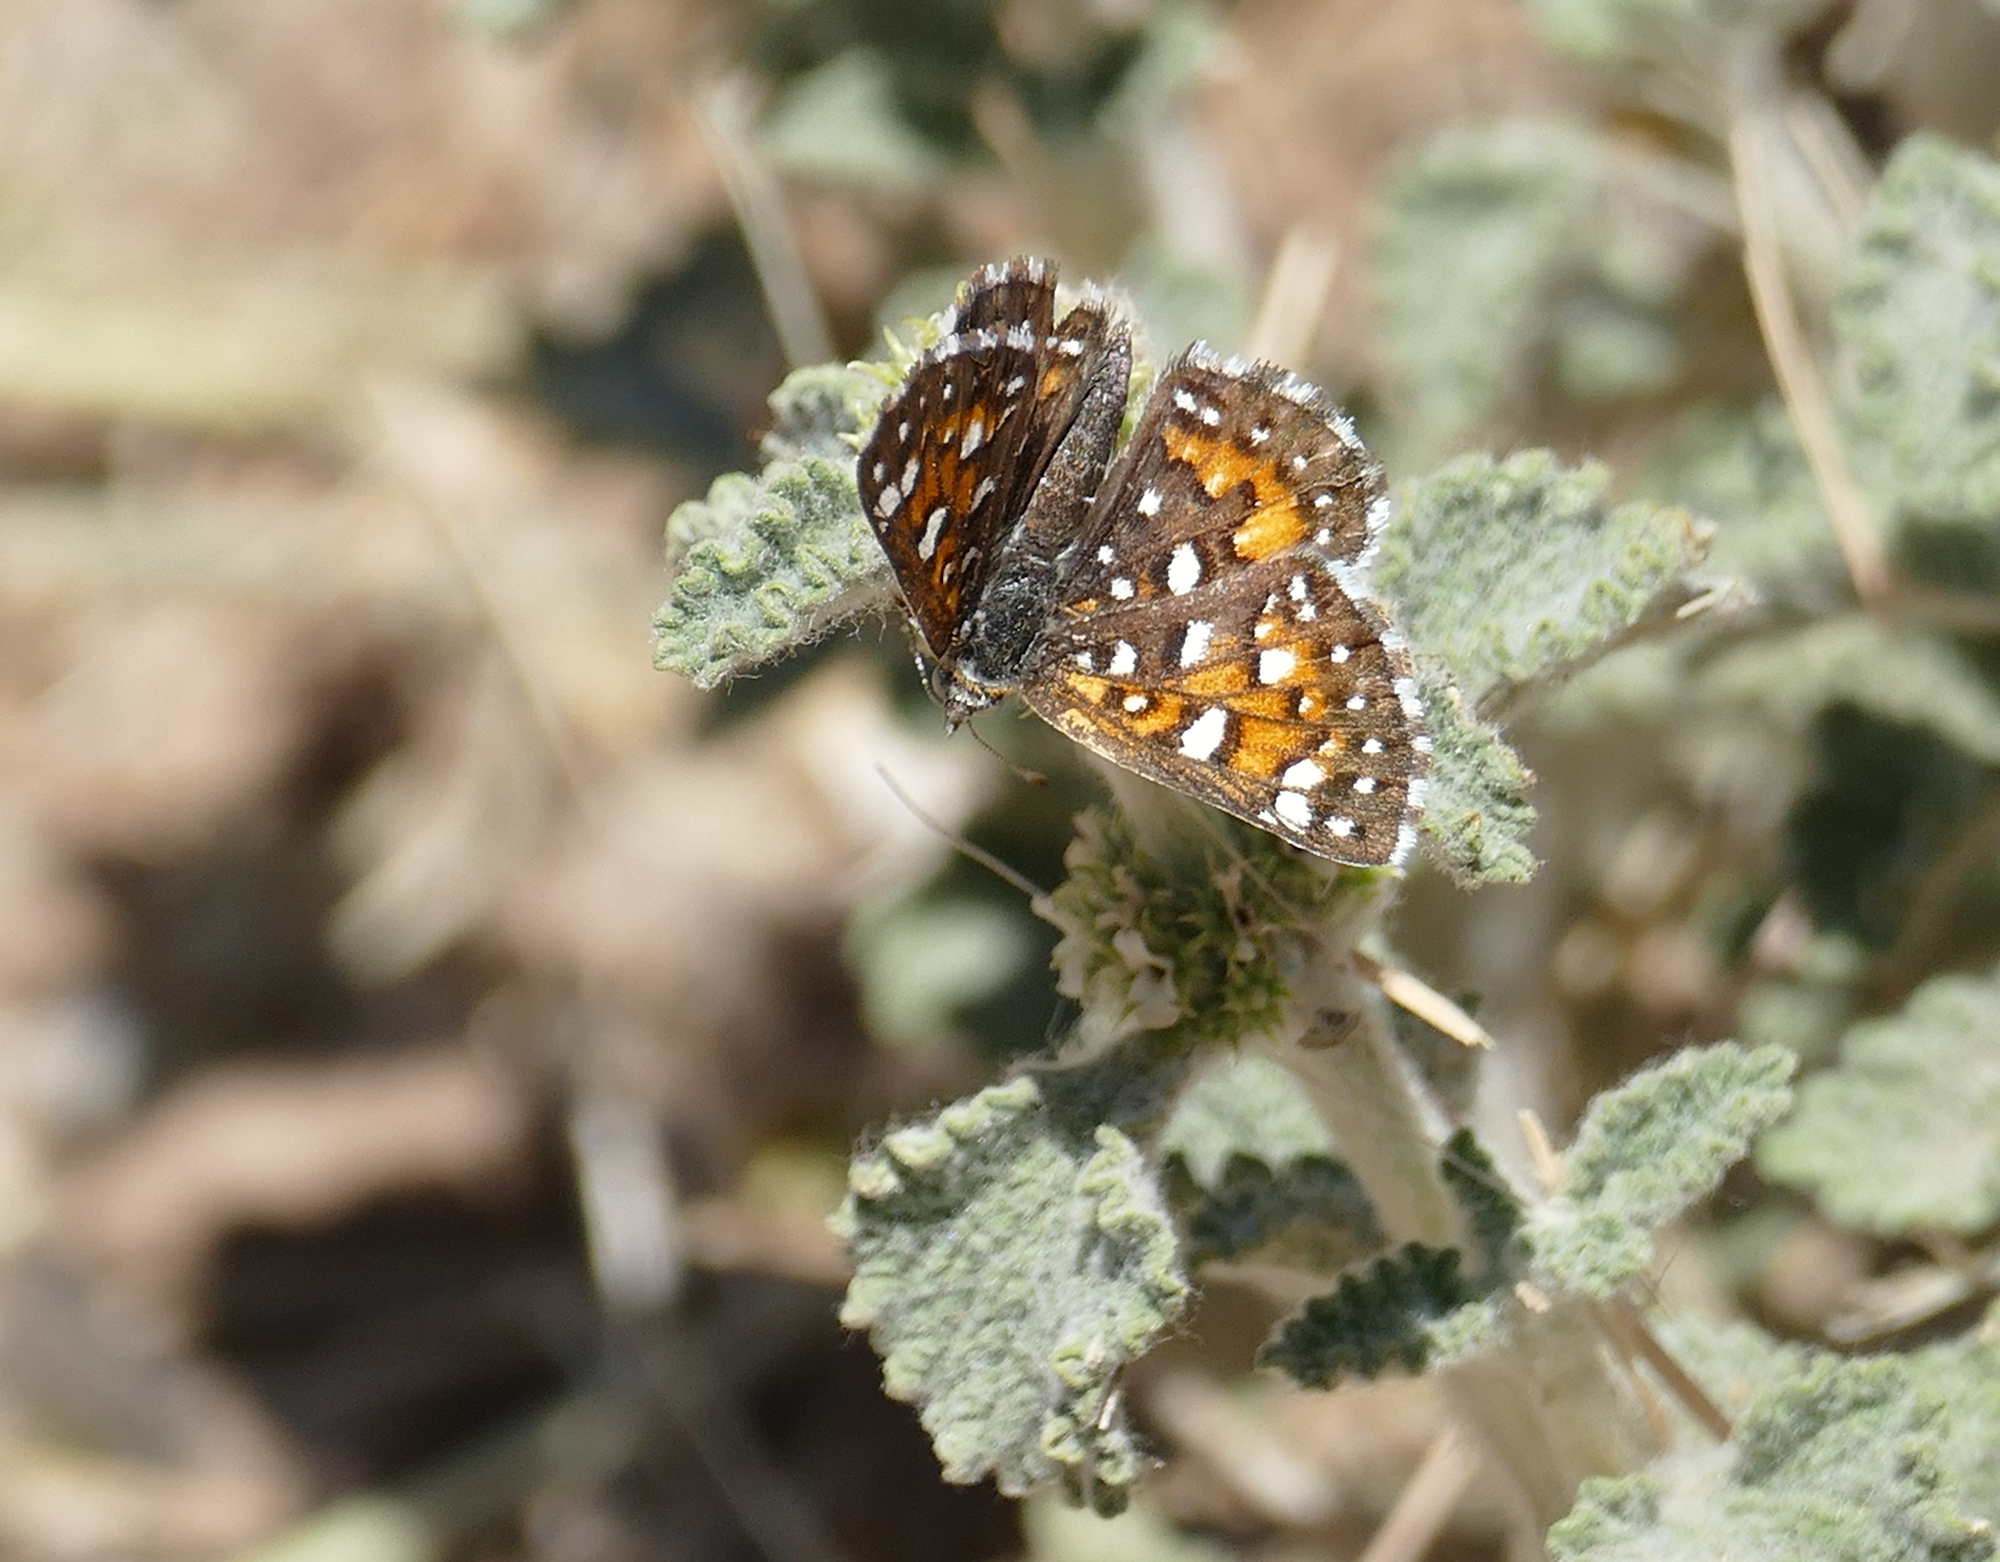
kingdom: Animalia
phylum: Arthropoda
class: Insecta
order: Lepidoptera
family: Riodinidae
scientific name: Riodinidae
